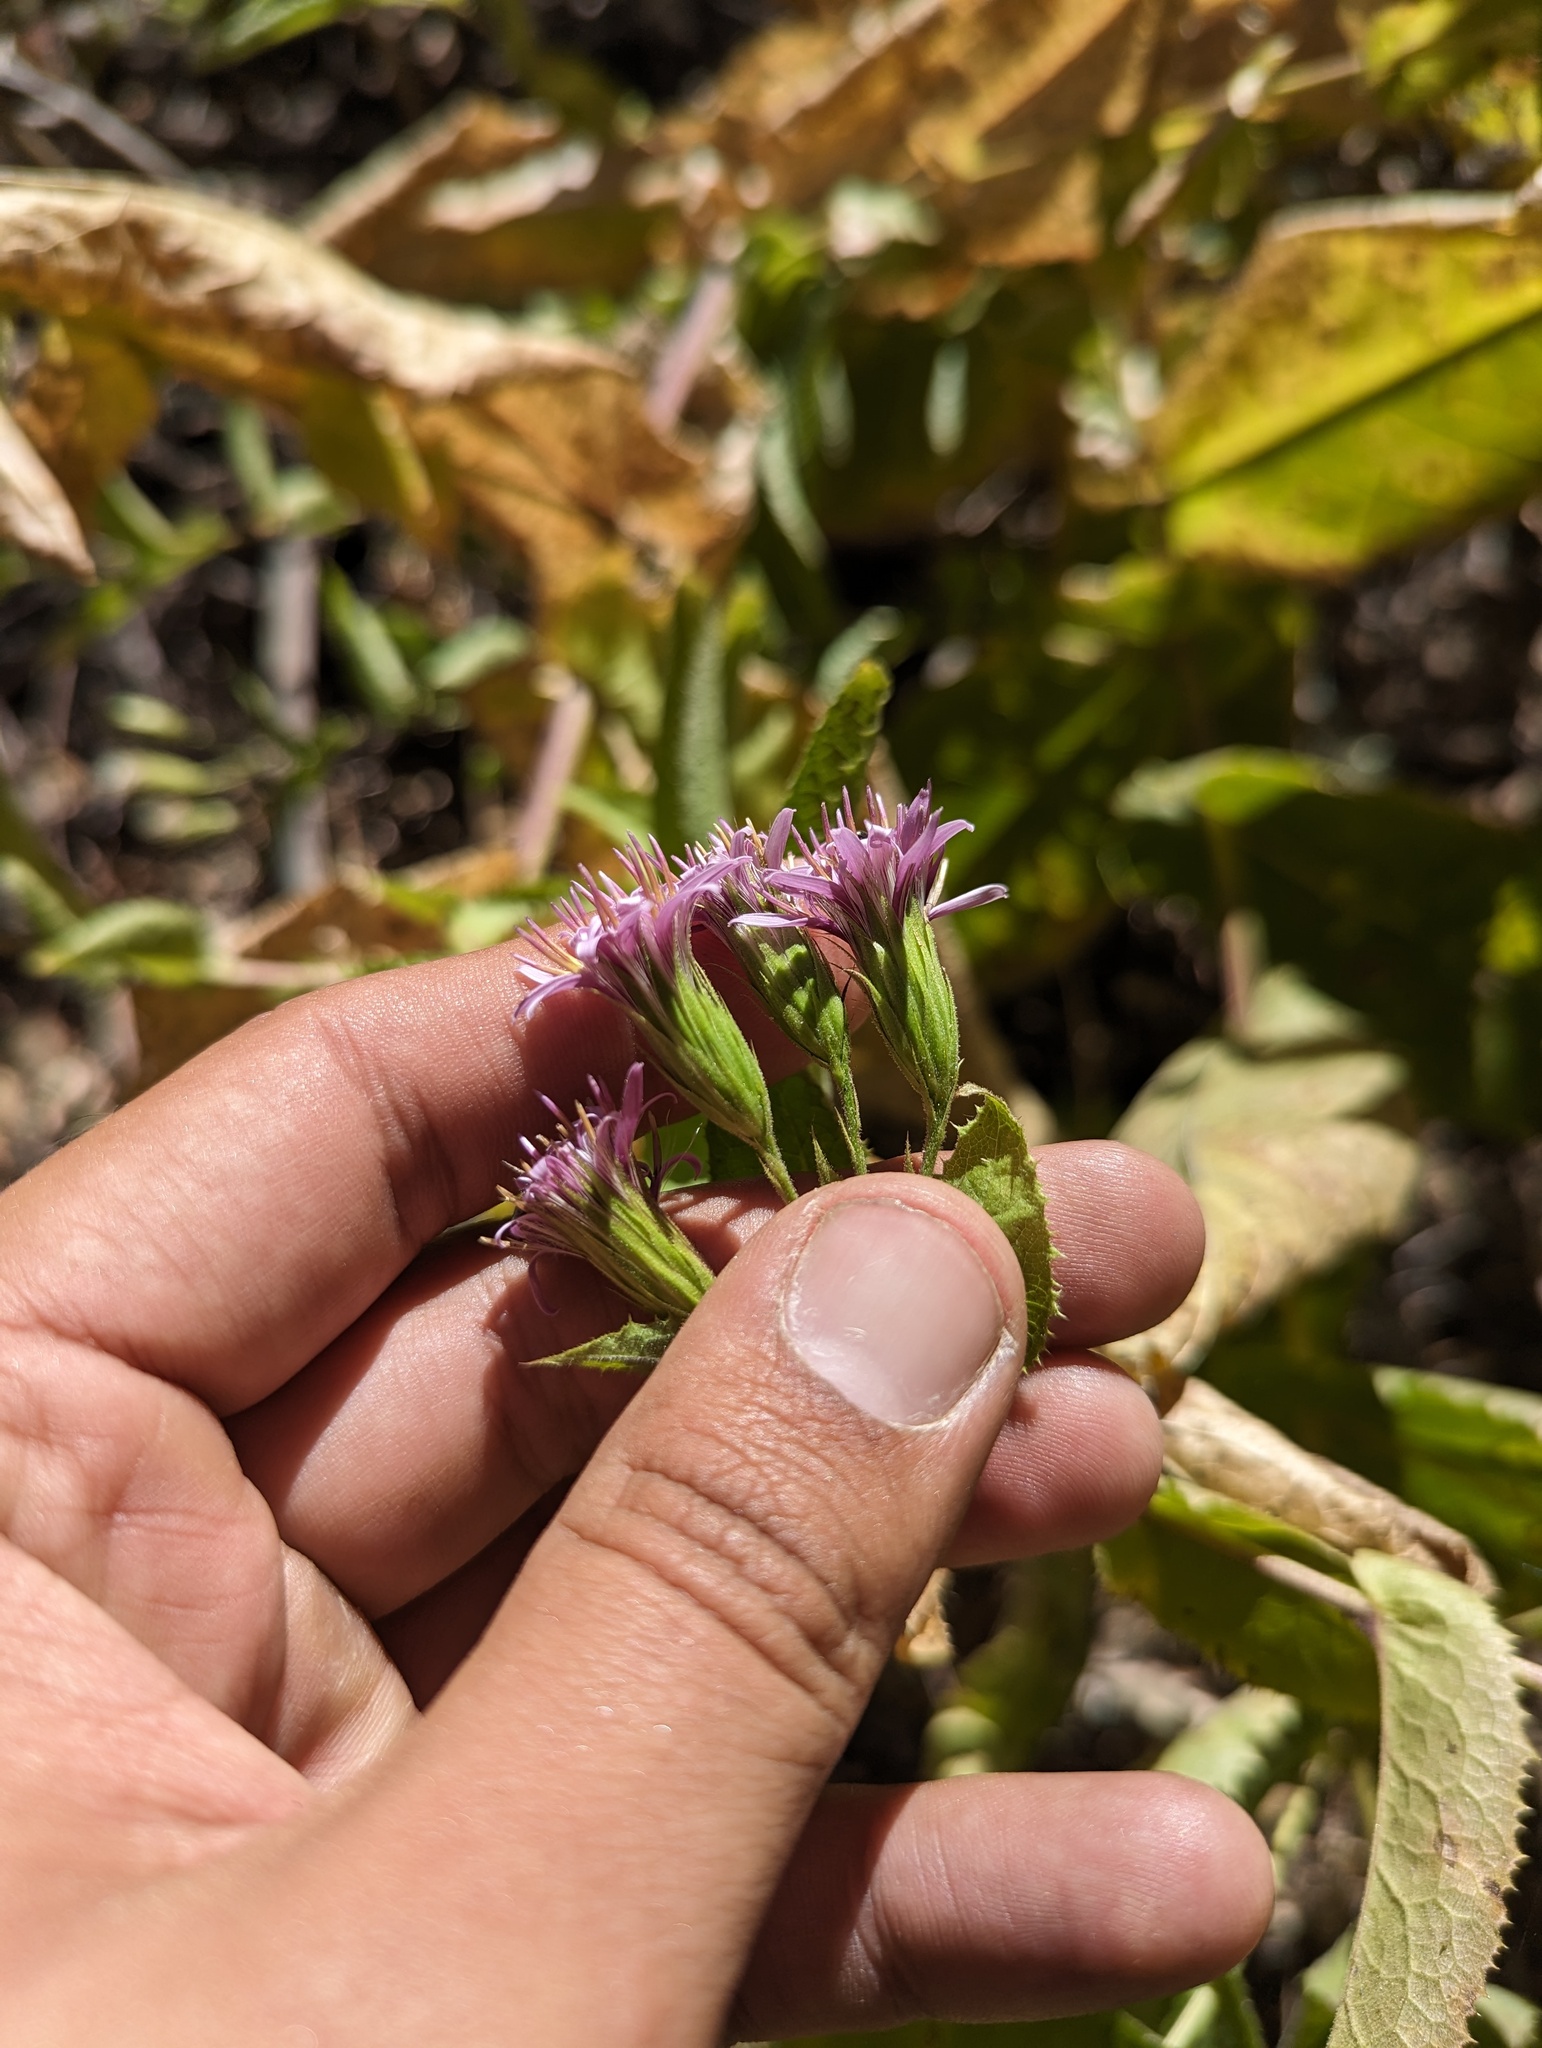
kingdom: Plantae
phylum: Tracheophyta
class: Magnoliopsida
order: Asterales
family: Asteraceae
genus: Acourtia
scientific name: Acourtia pinetorum
